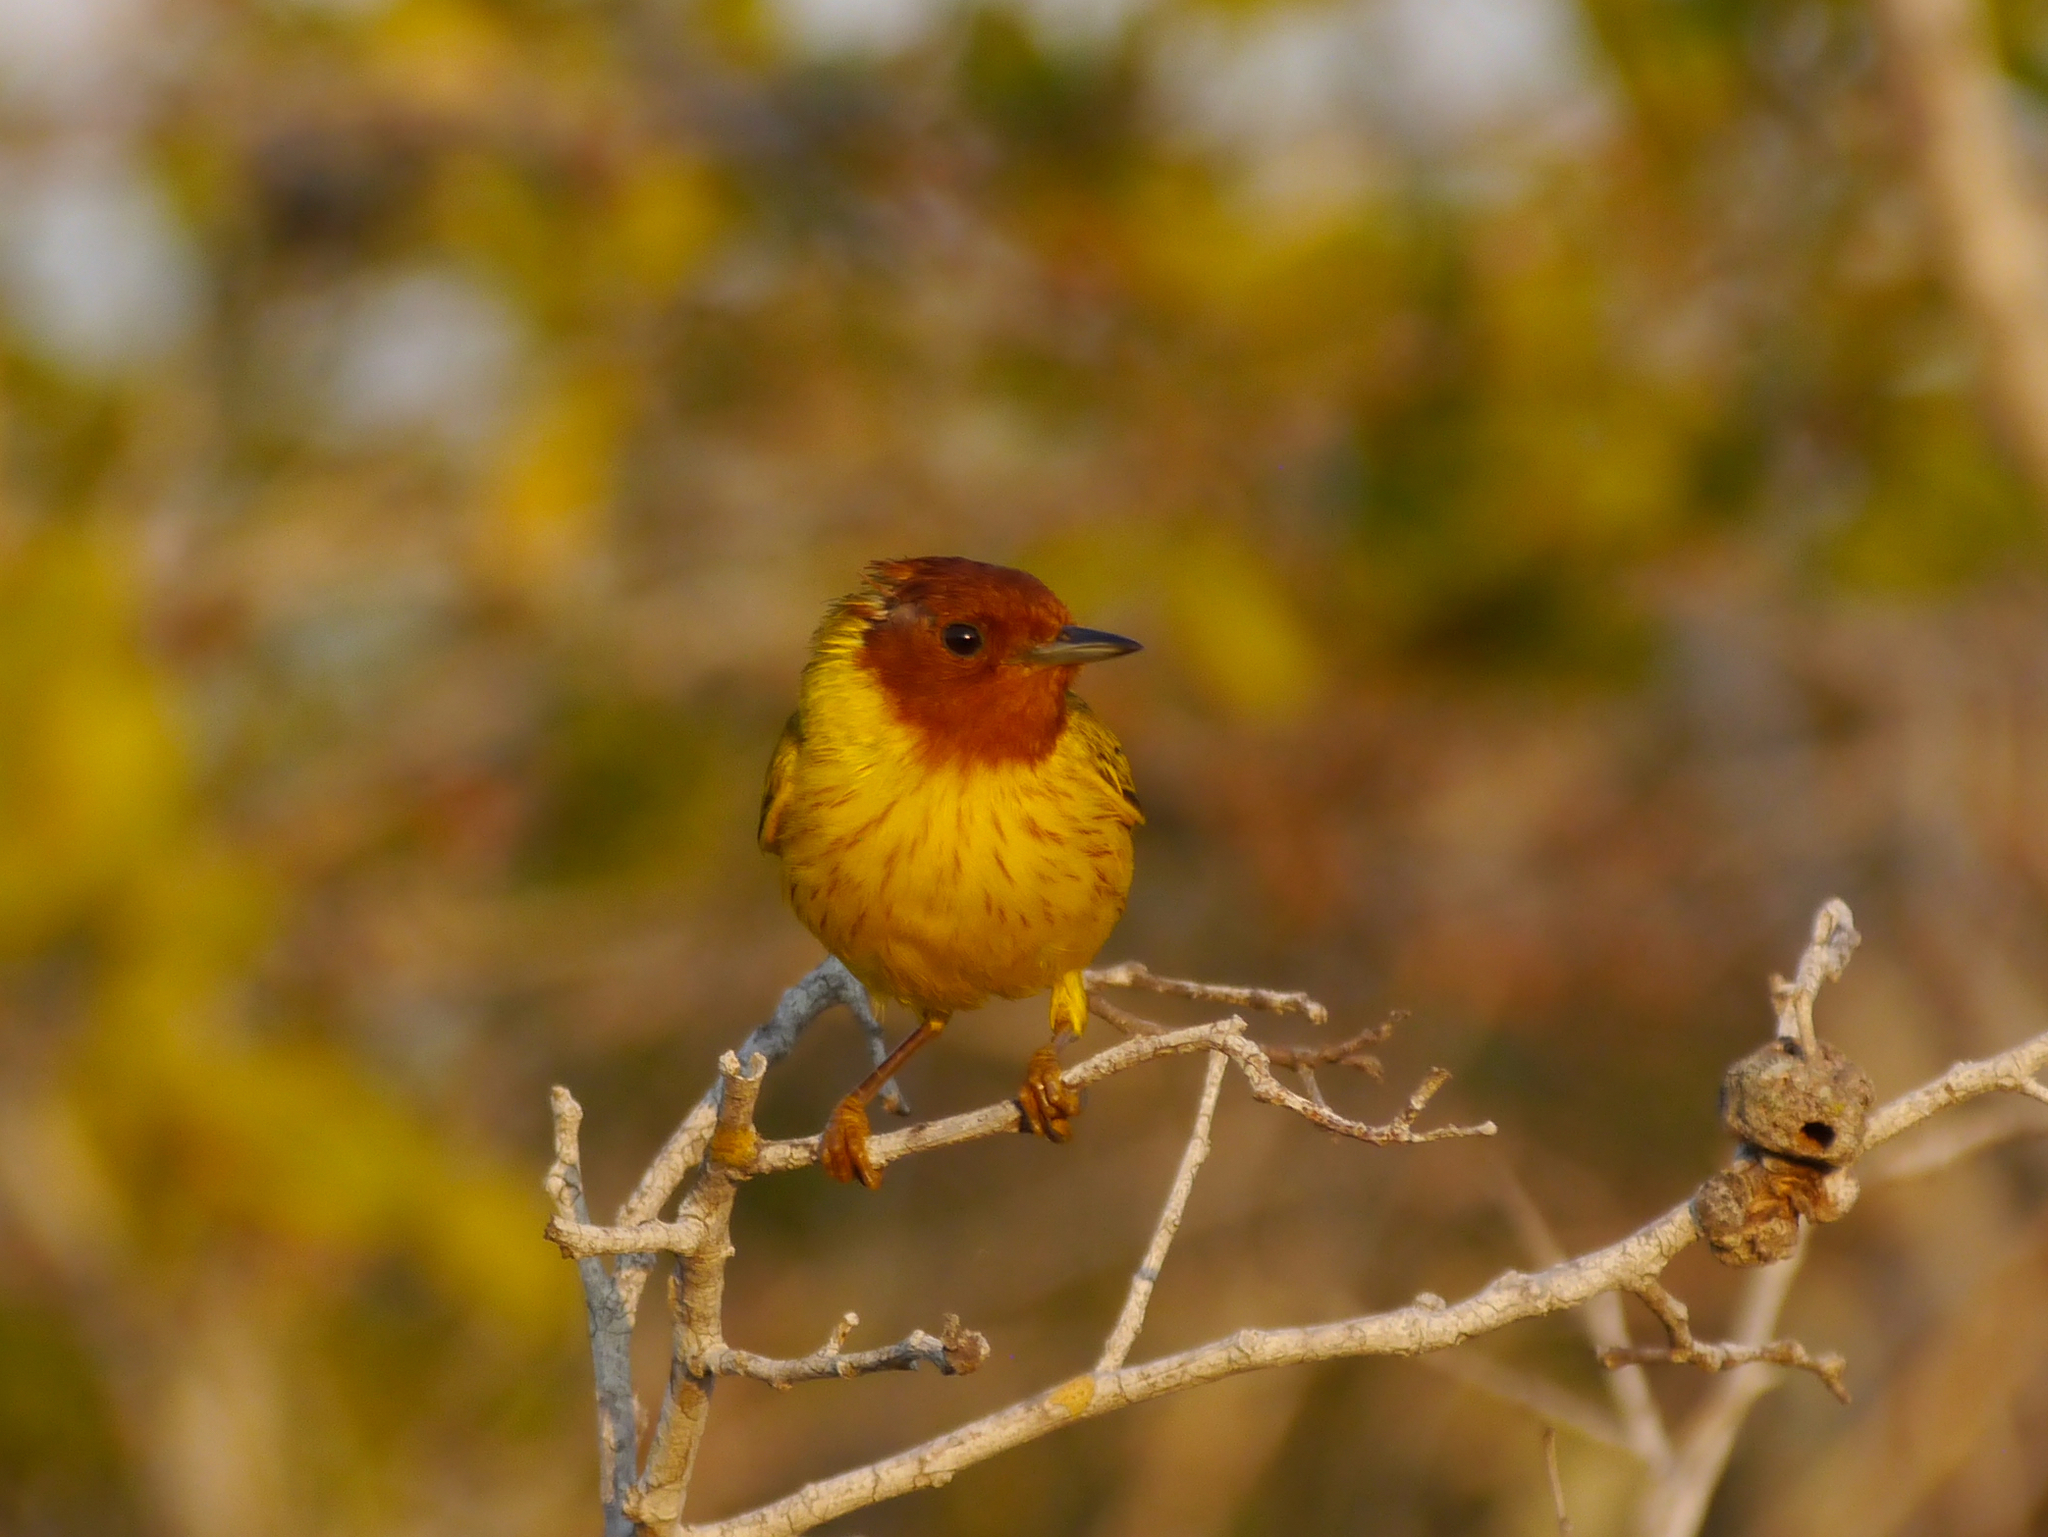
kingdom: Animalia
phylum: Chordata
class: Aves
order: Passeriformes
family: Parulidae
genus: Setophaga
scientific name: Setophaga petechia
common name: Yellow warbler
